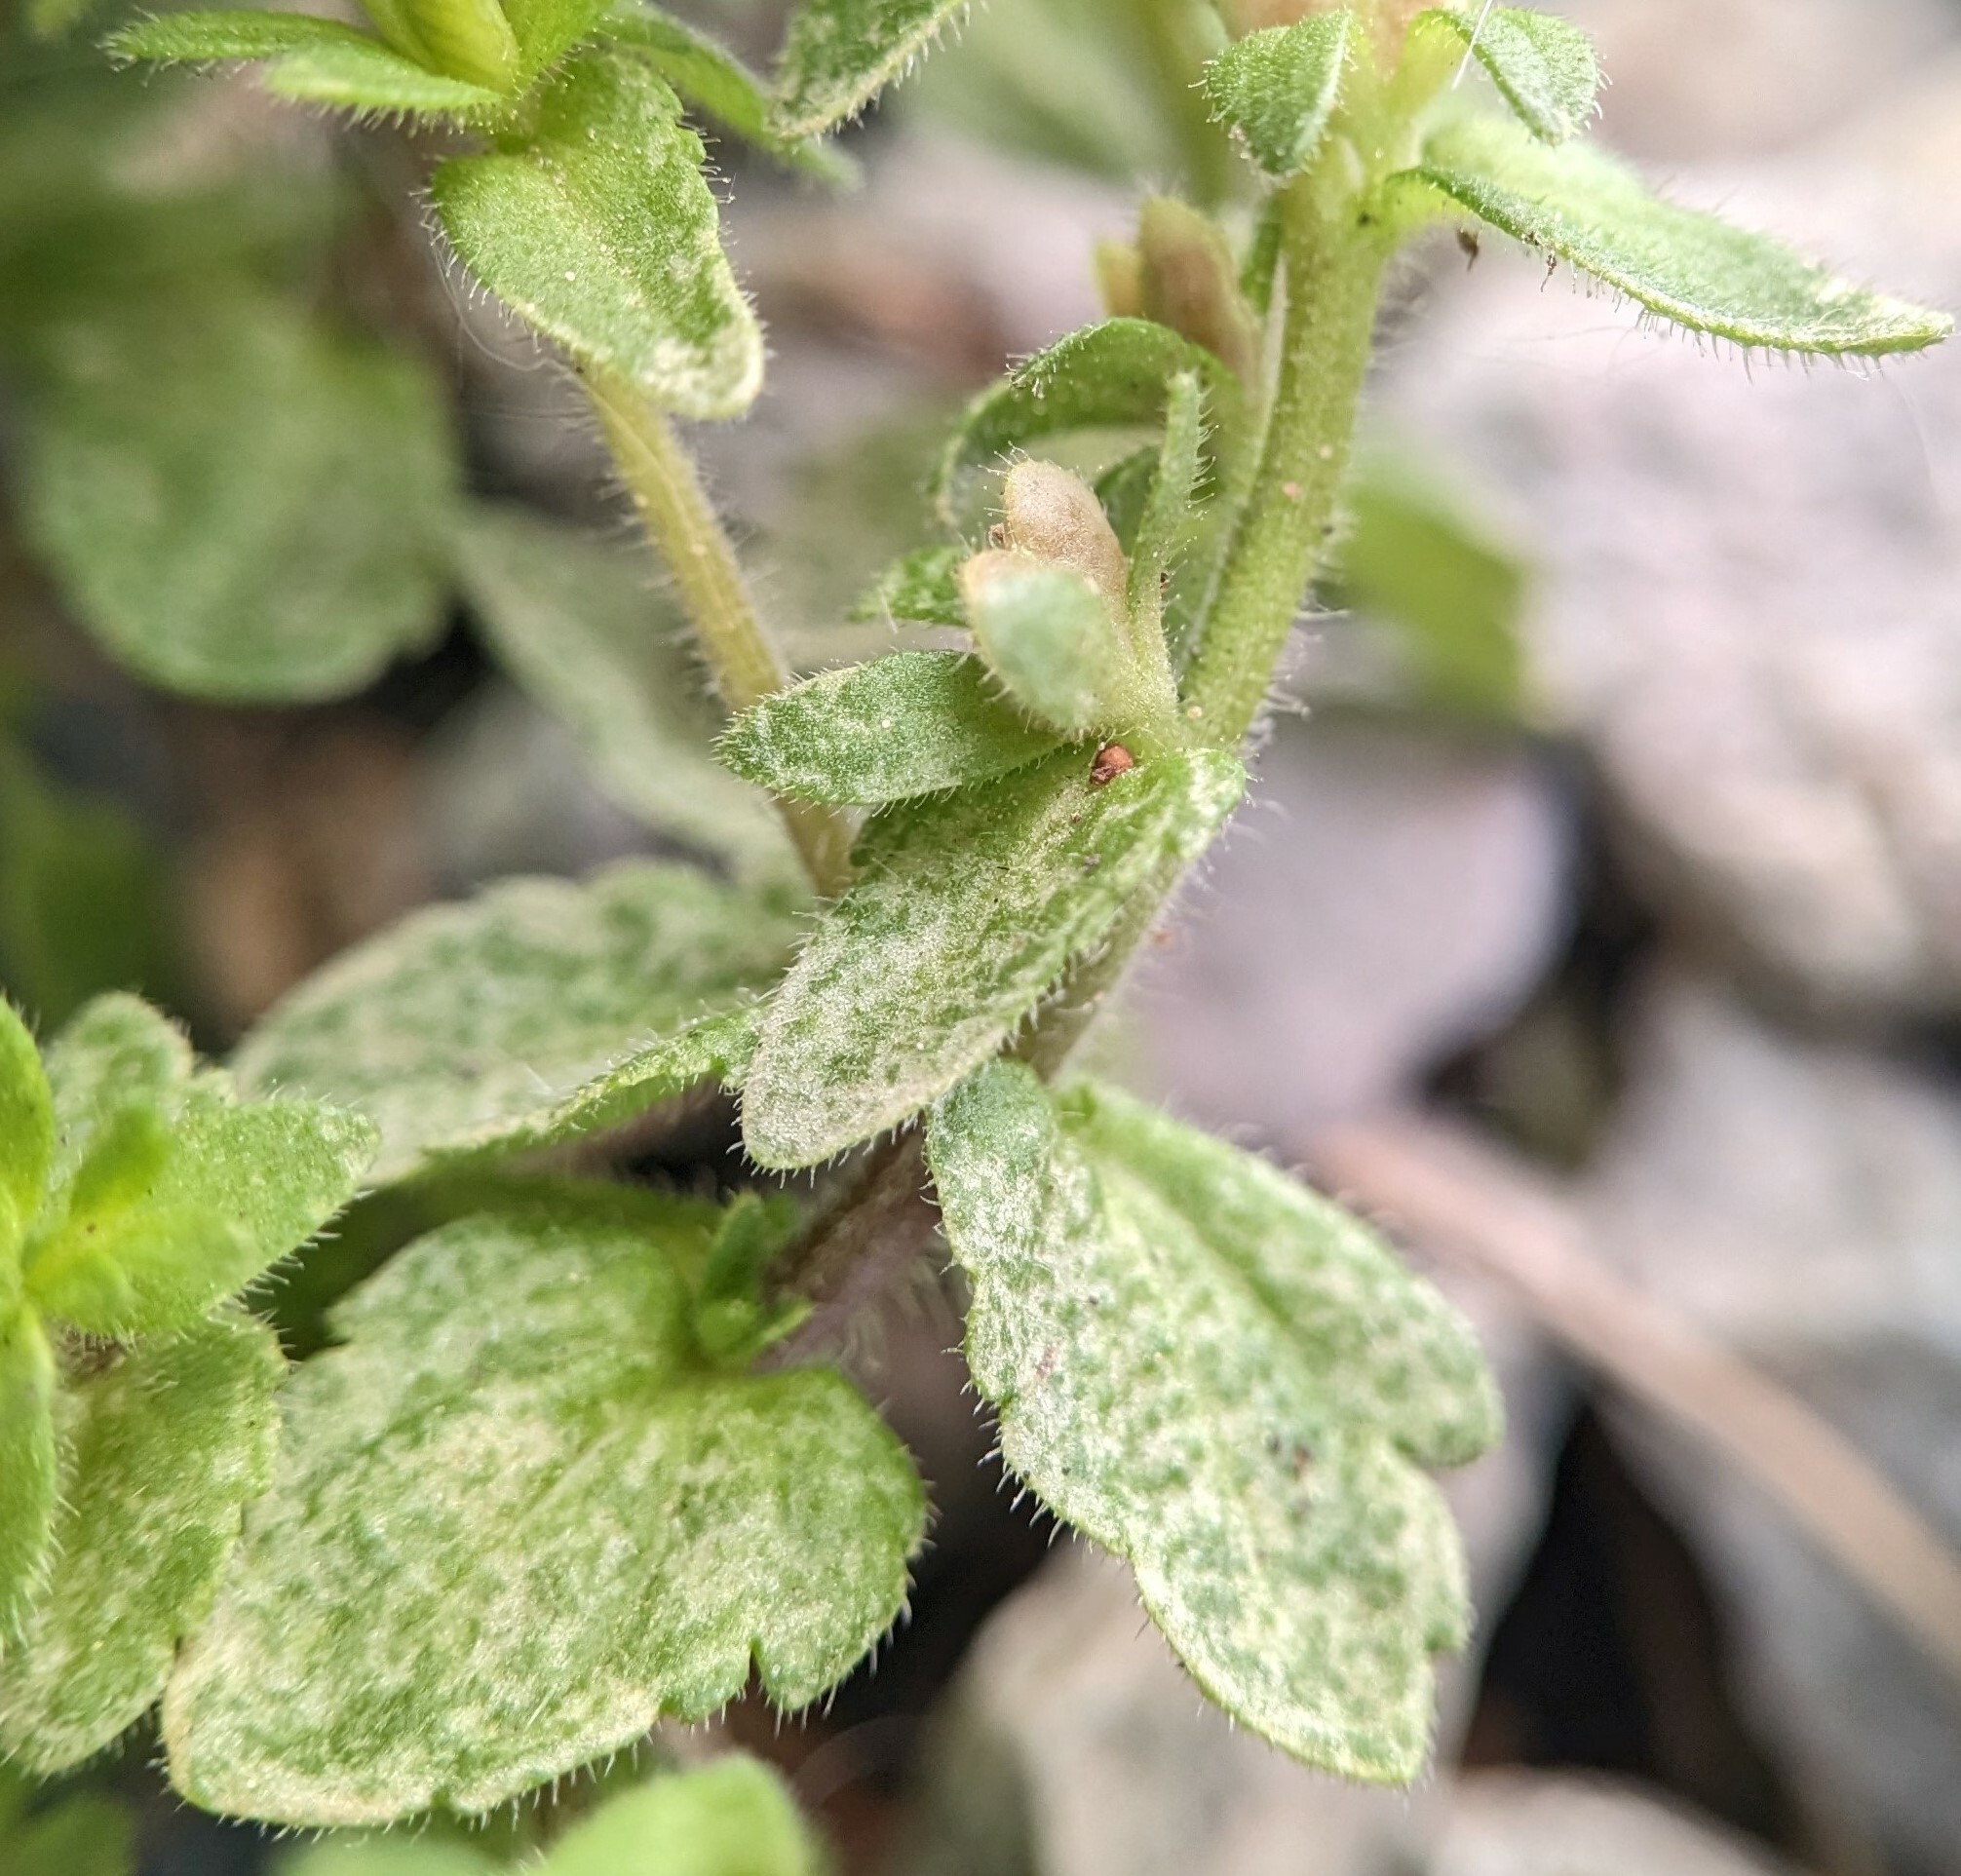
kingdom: Plantae
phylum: Tracheophyta
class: Magnoliopsida
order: Lamiales
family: Plantaginaceae
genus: Veronica
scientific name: Veronica arvensis
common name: Corn speedwell
